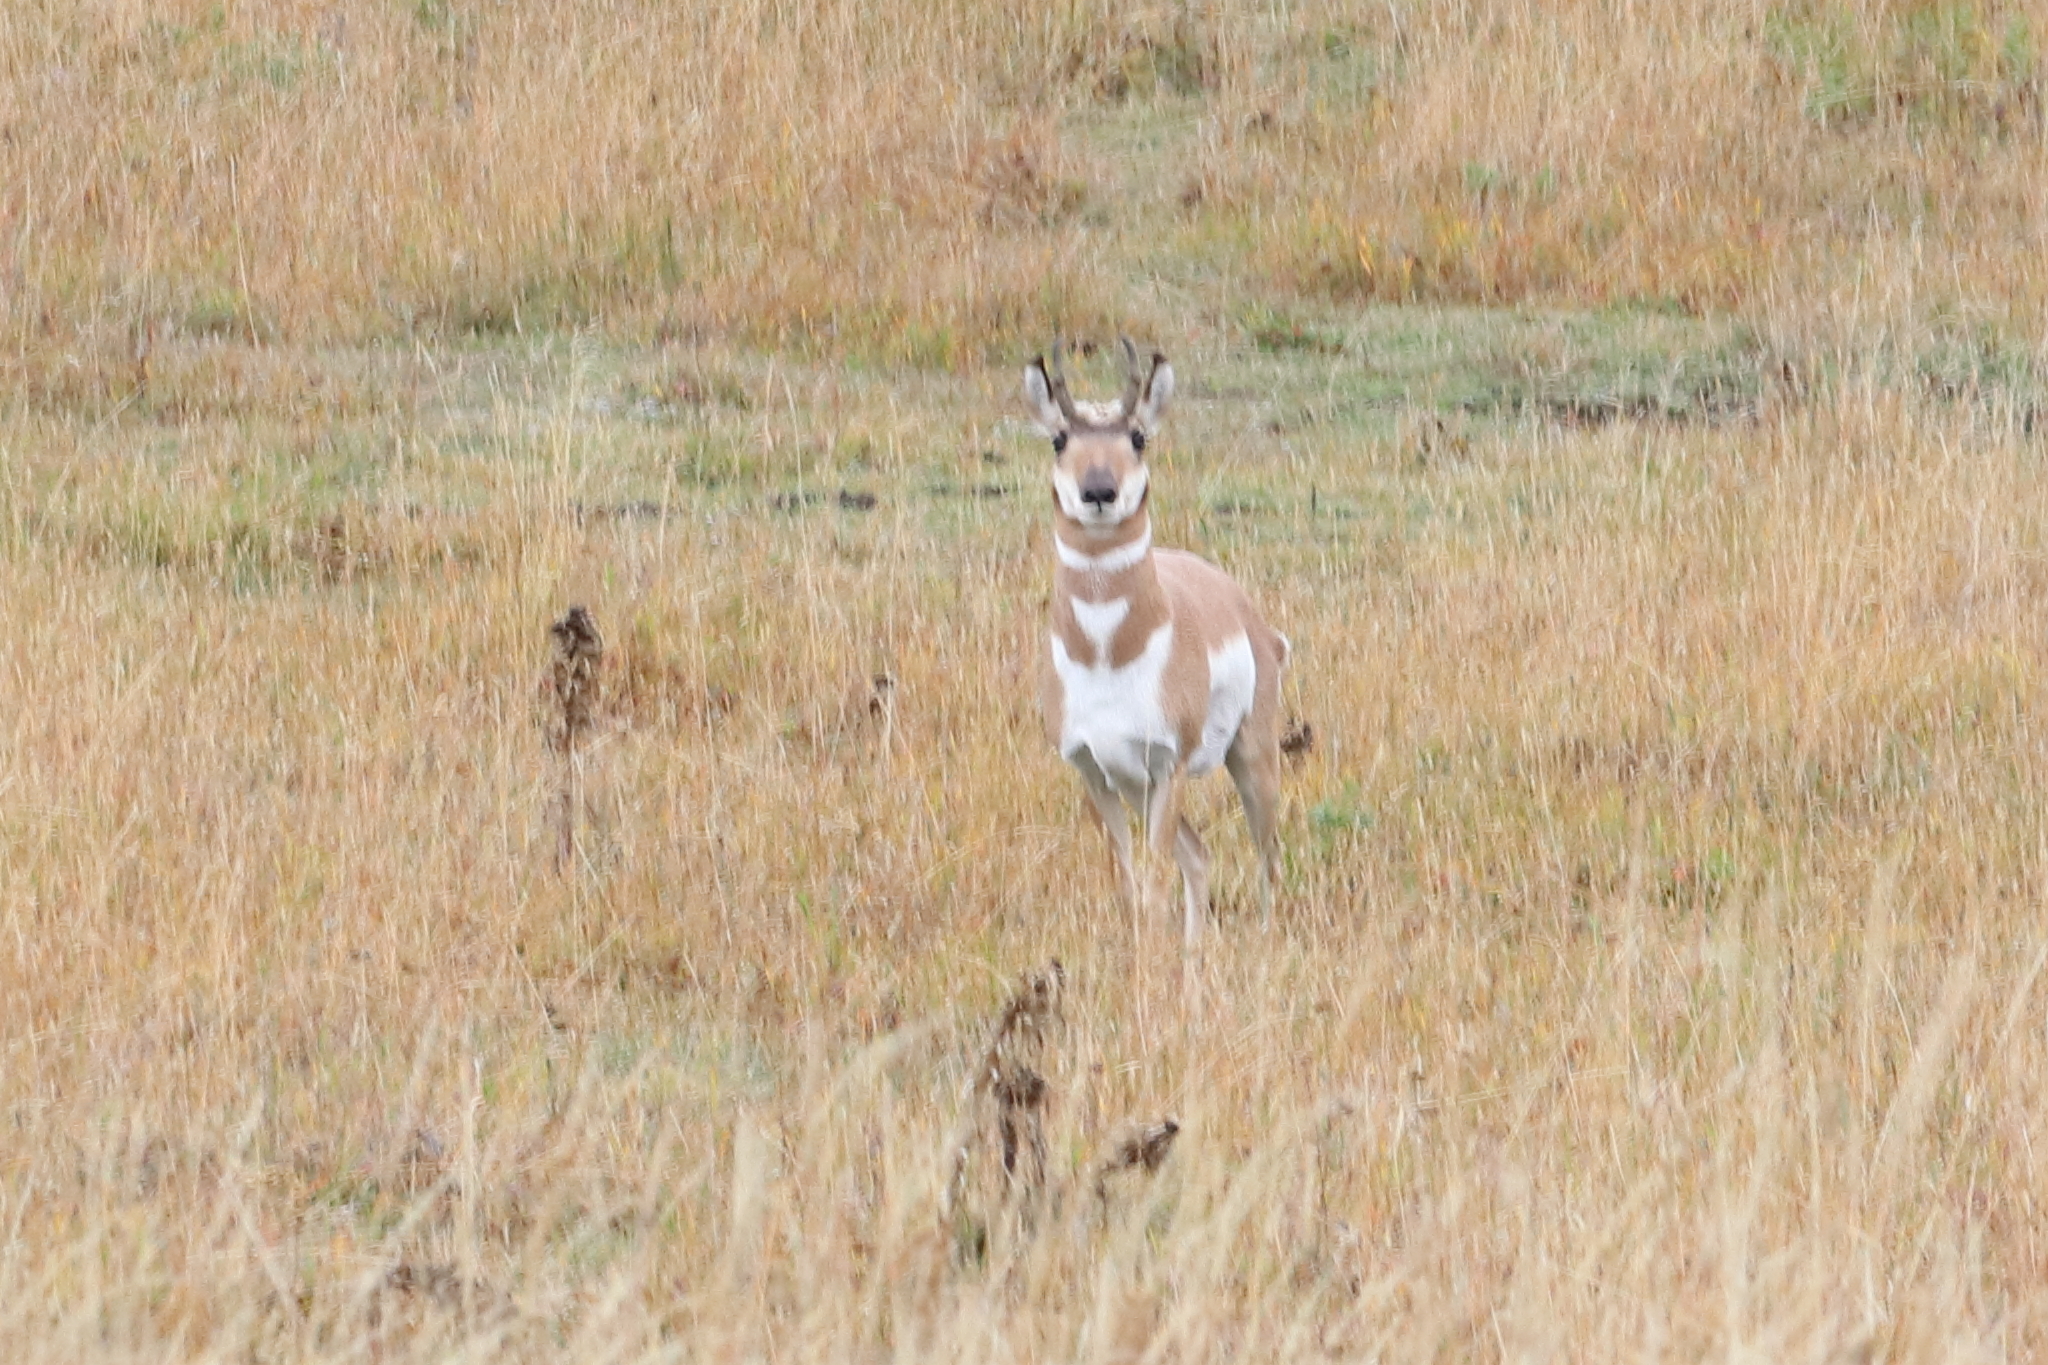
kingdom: Animalia
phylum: Chordata
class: Mammalia
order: Artiodactyla
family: Antilocapridae
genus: Antilocapra
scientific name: Antilocapra americana
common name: Pronghorn
